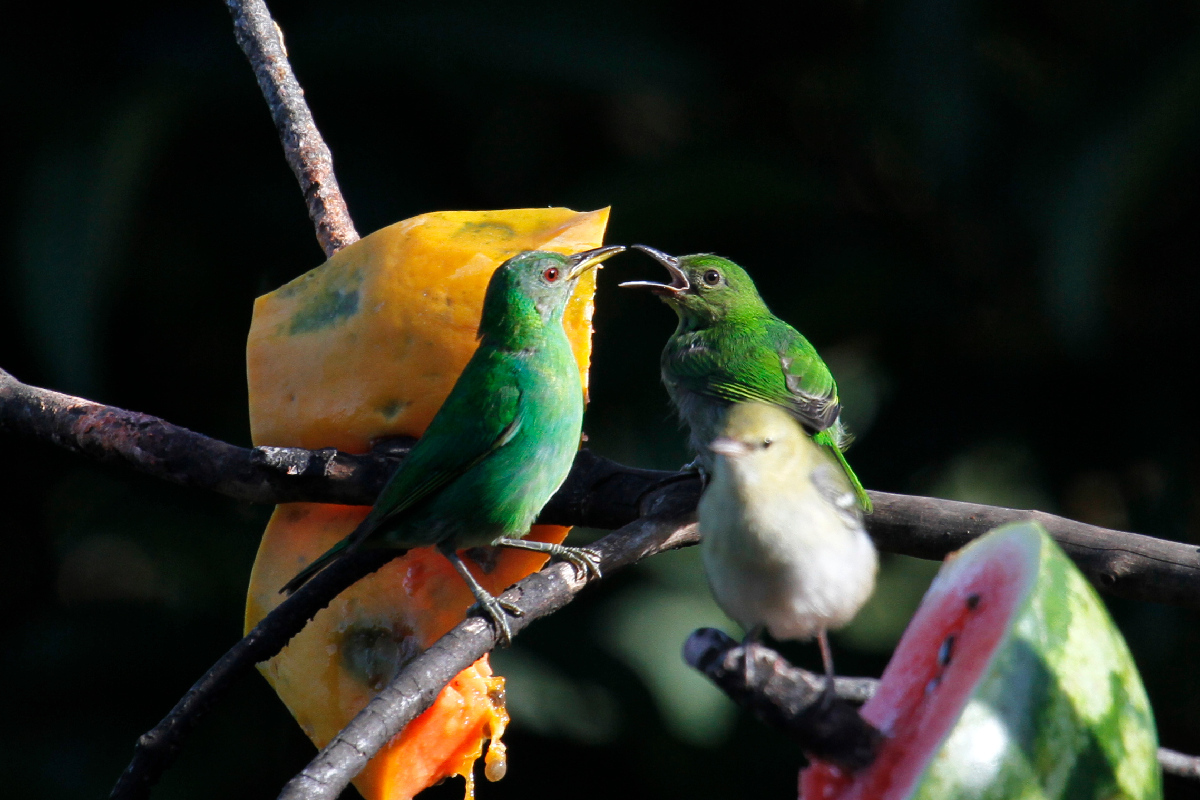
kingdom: Animalia
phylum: Chordata
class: Aves
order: Passeriformes
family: Thraupidae
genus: Chlorophanes
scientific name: Chlorophanes spiza
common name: Green honeycreeper
